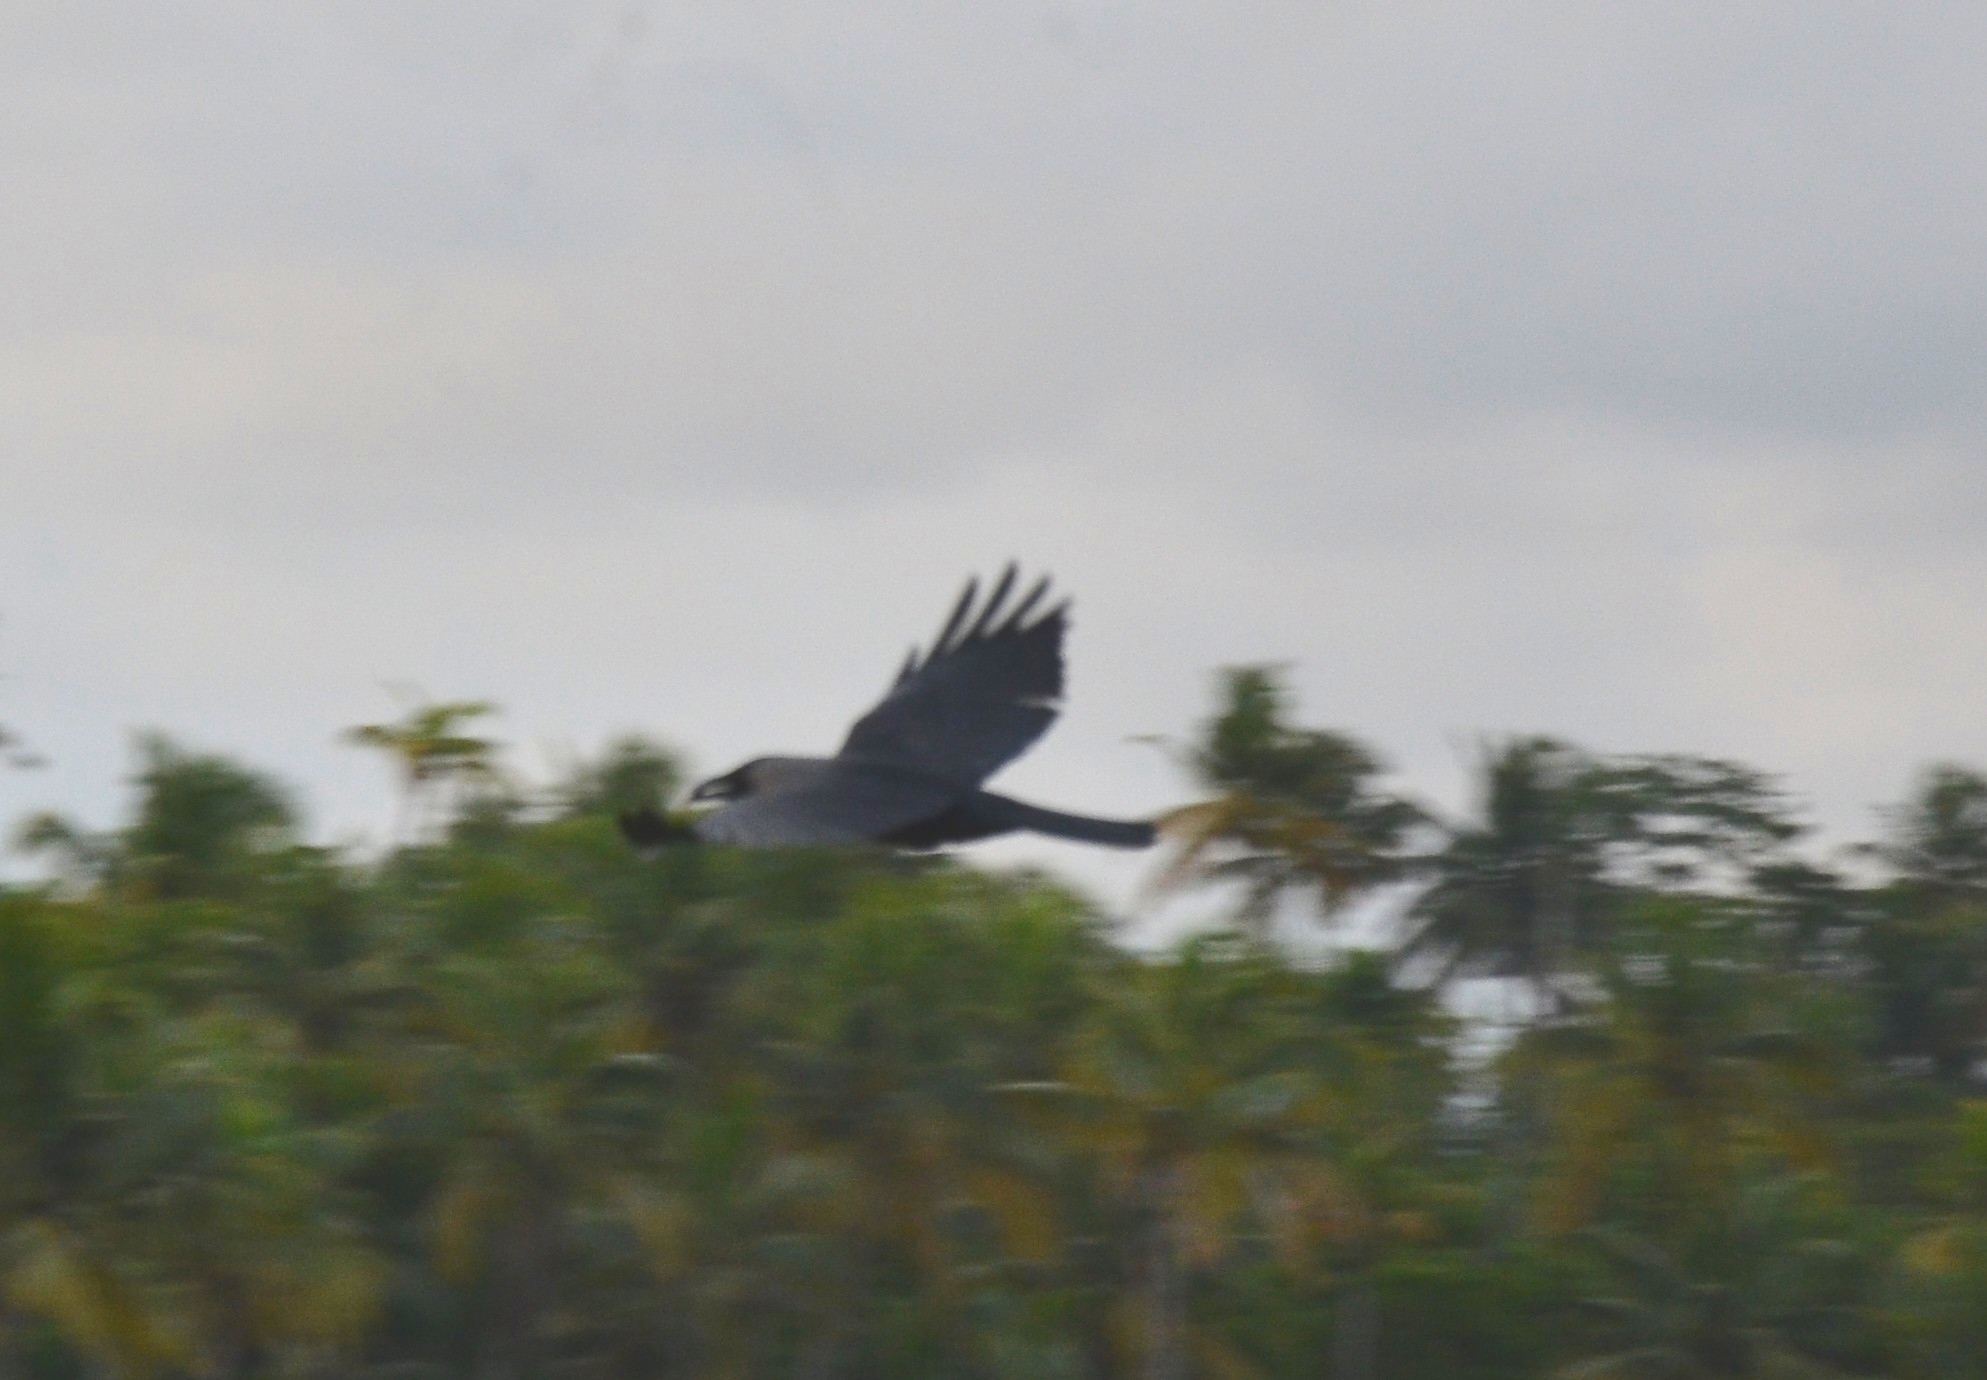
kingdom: Animalia
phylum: Chordata
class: Aves
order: Passeriformes
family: Corvidae
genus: Corvus
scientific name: Corvus splendens
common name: House crow
